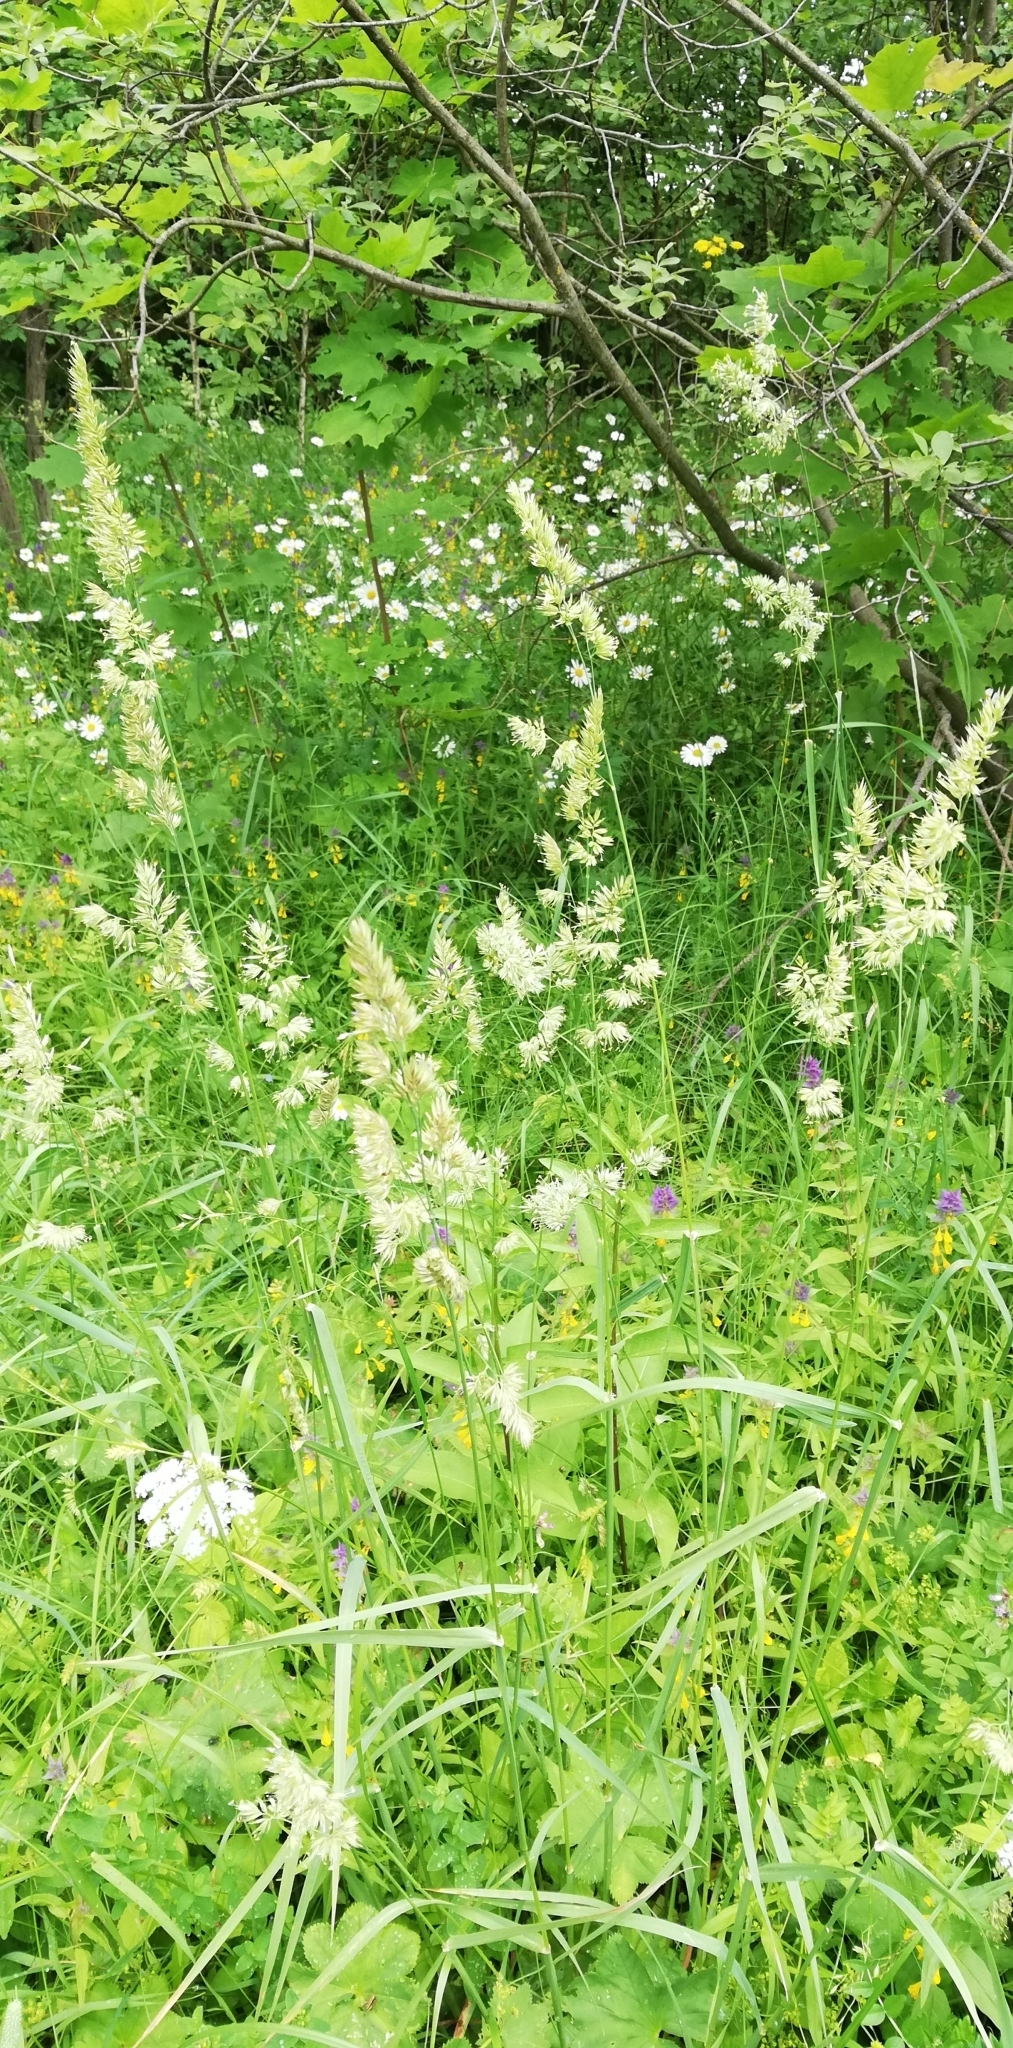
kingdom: Plantae
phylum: Tracheophyta
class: Liliopsida
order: Poales
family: Poaceae
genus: Dactylis
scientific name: Dactylis glomerata
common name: Orchardgrass
